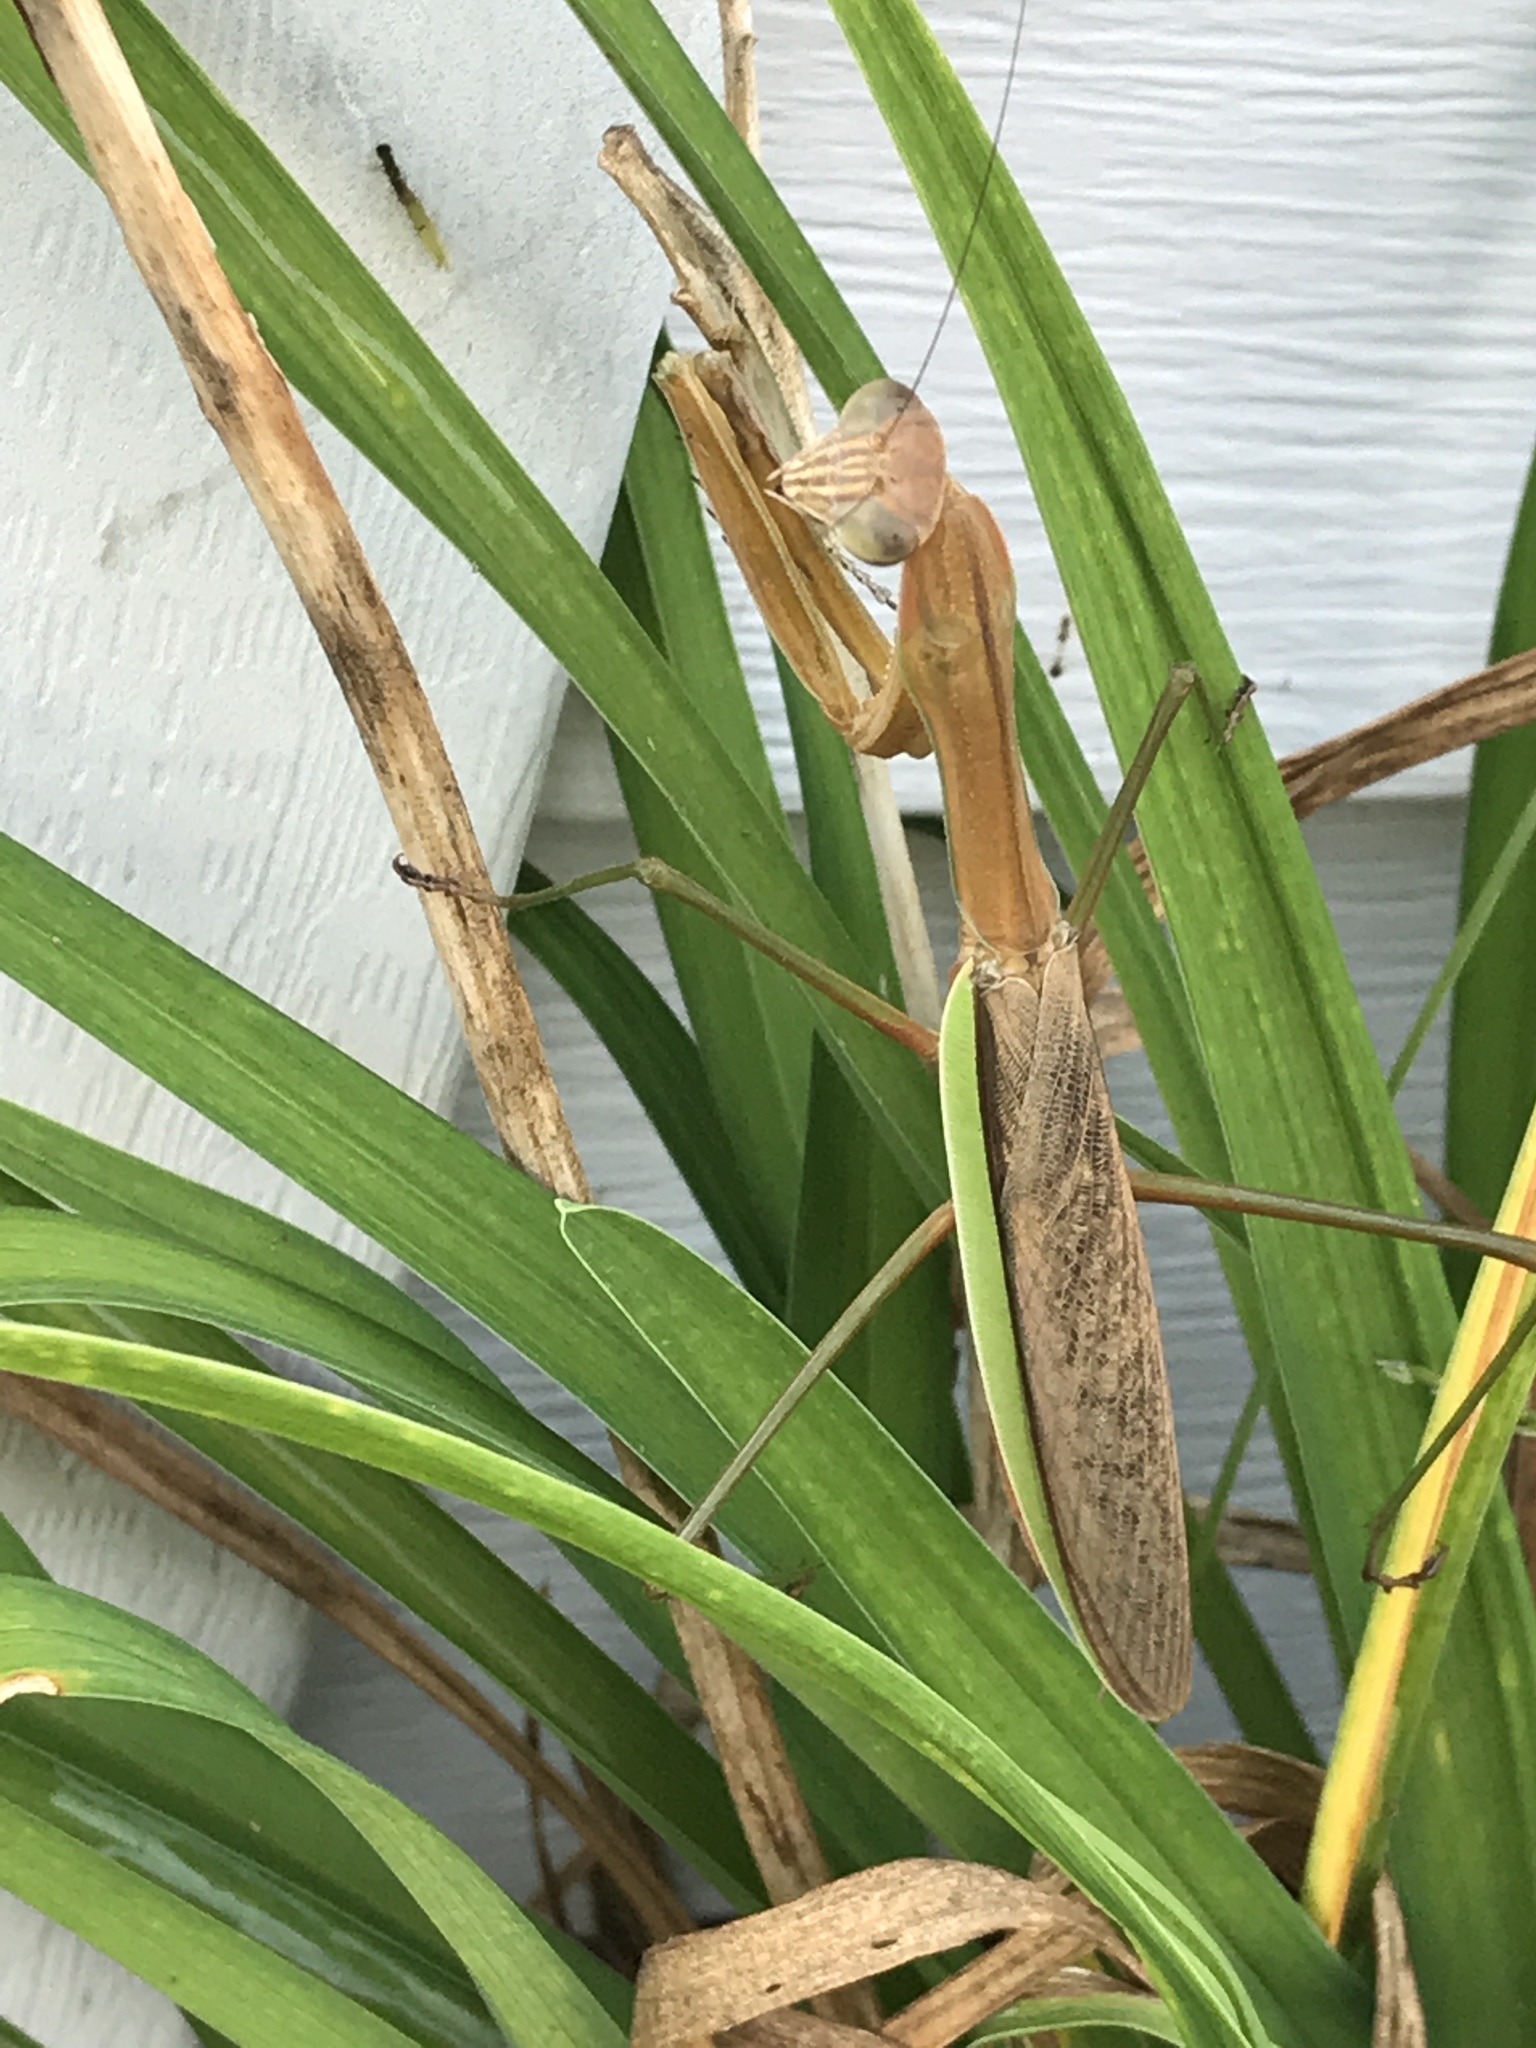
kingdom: Animalia
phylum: Arthropoda
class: Insecta
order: Mantodea
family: Mantidae
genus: Tenodera
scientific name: Tenodera sinensis
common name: Chinese mantis
